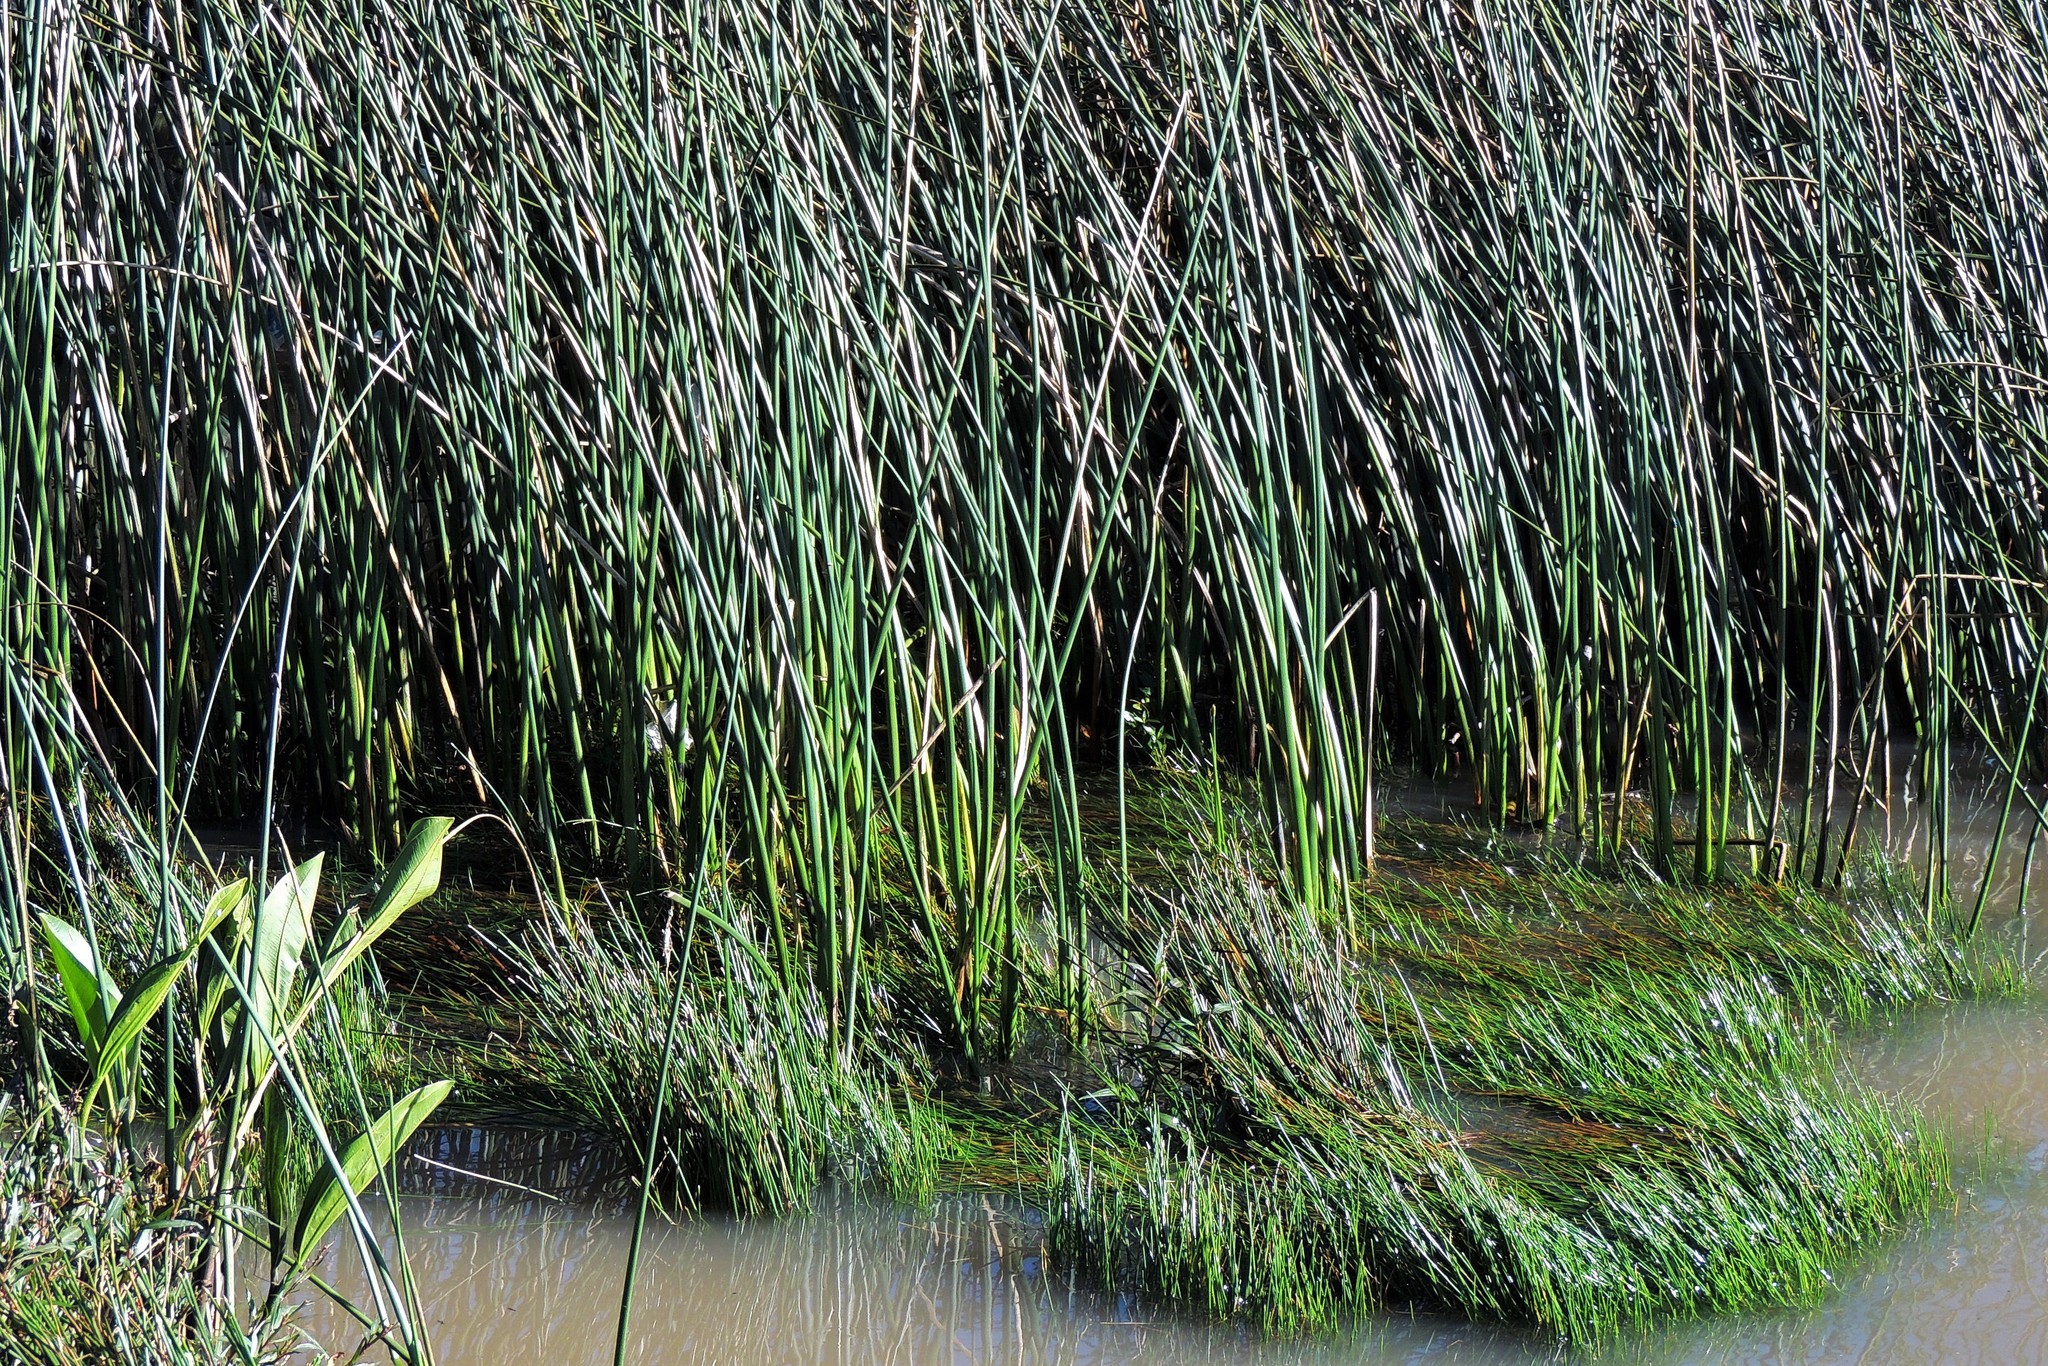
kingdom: Plantae
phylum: Tracheophyta
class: Liliopsida
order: Poales
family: Cyperaceae
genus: Schoenoplectus
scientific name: Schoenoplectus californicus
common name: California bulrush
